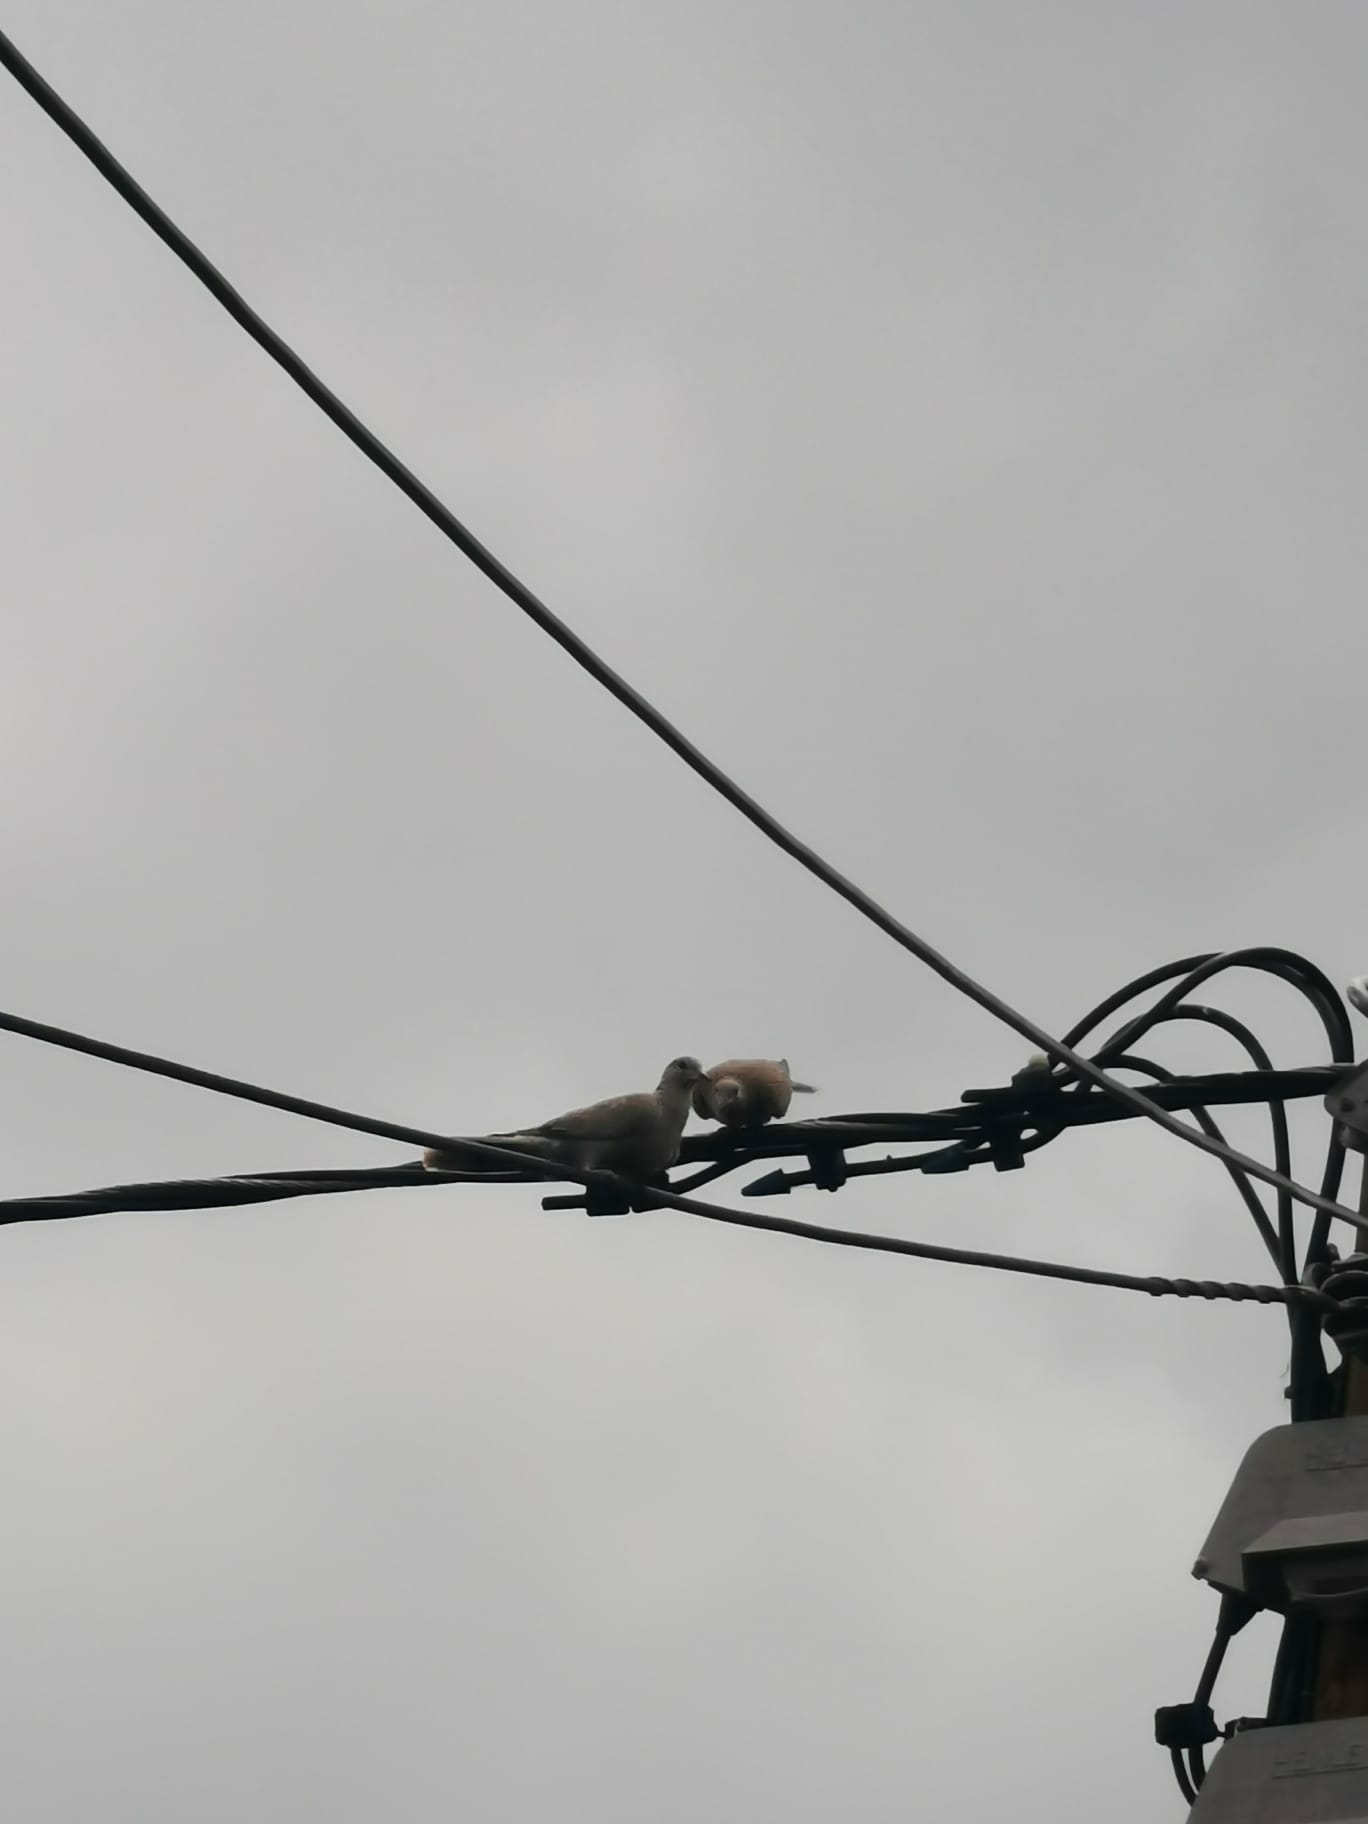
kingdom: Animalia
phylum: Chordata
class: Aves
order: Columbiformes
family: Columbidae
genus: Streptopelia
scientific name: Streptopelia decaocto
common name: Eurasian collared dove
